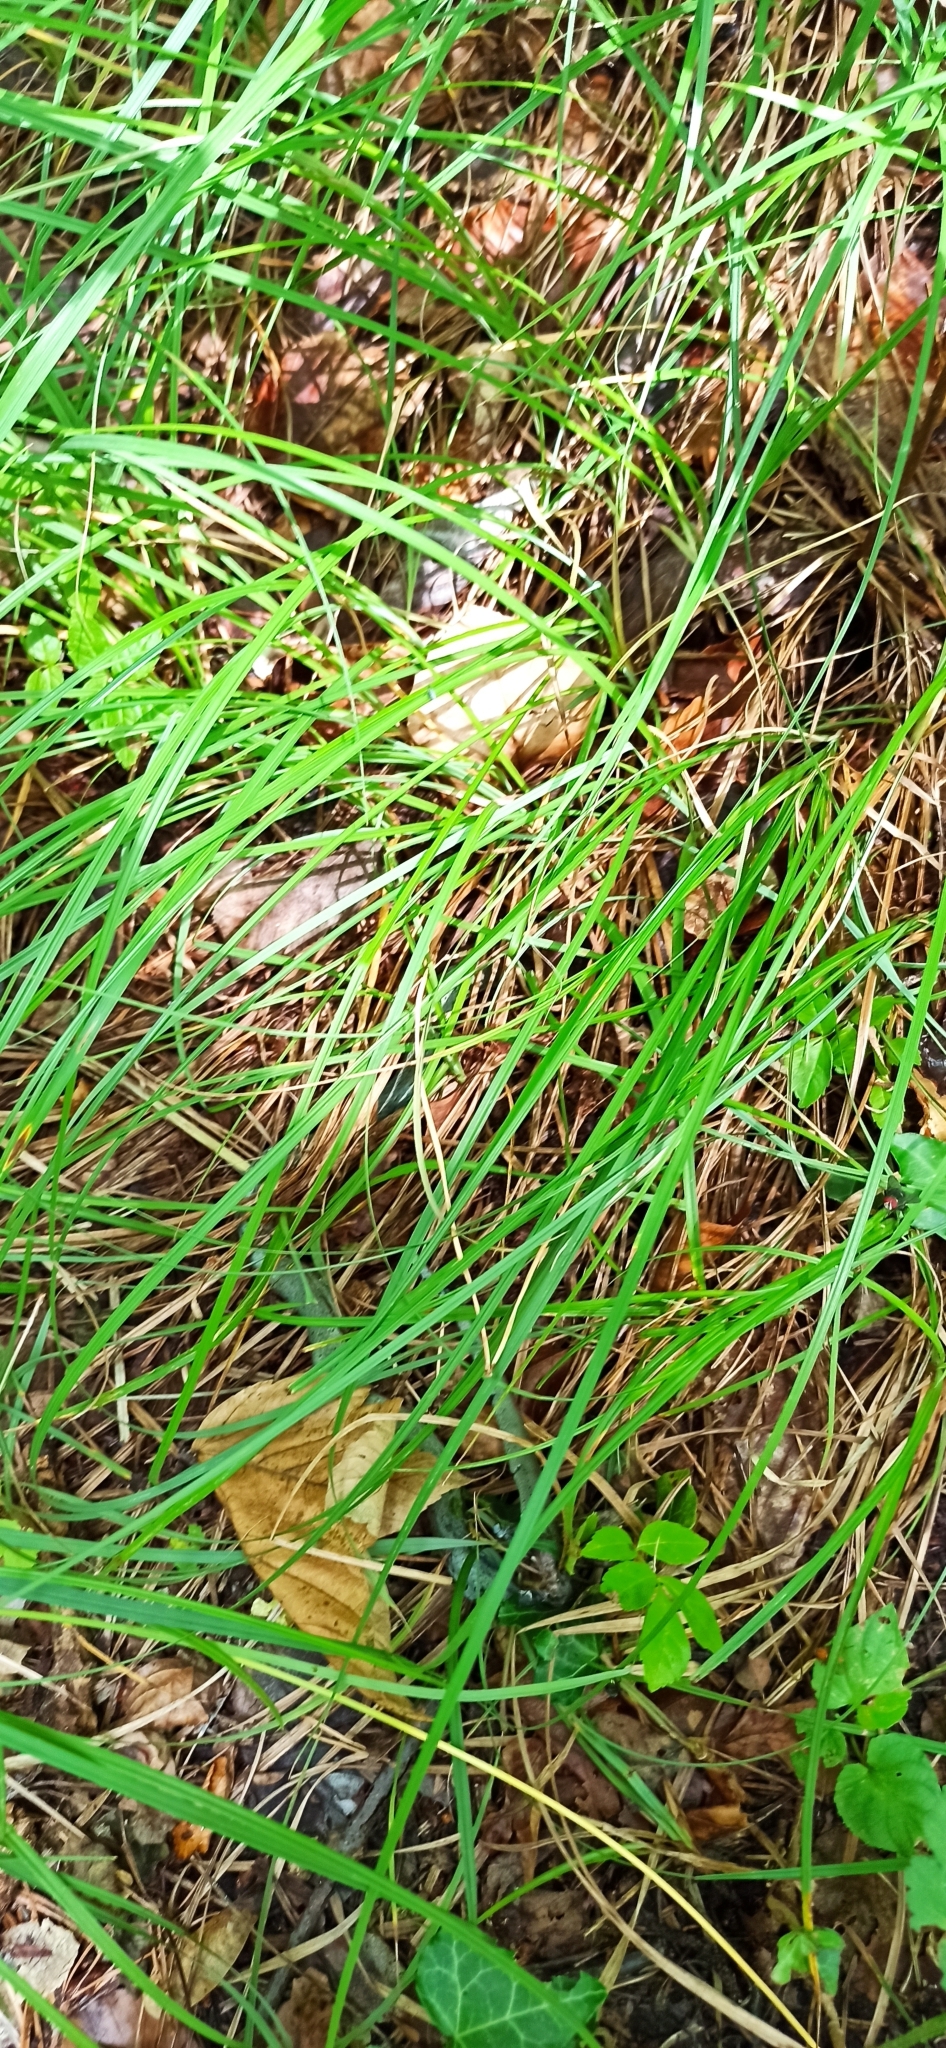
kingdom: Animalia
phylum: Chordata
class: Squamata
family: Colubridae
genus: Natrix
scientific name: Natrix natrix
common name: Grass snake
